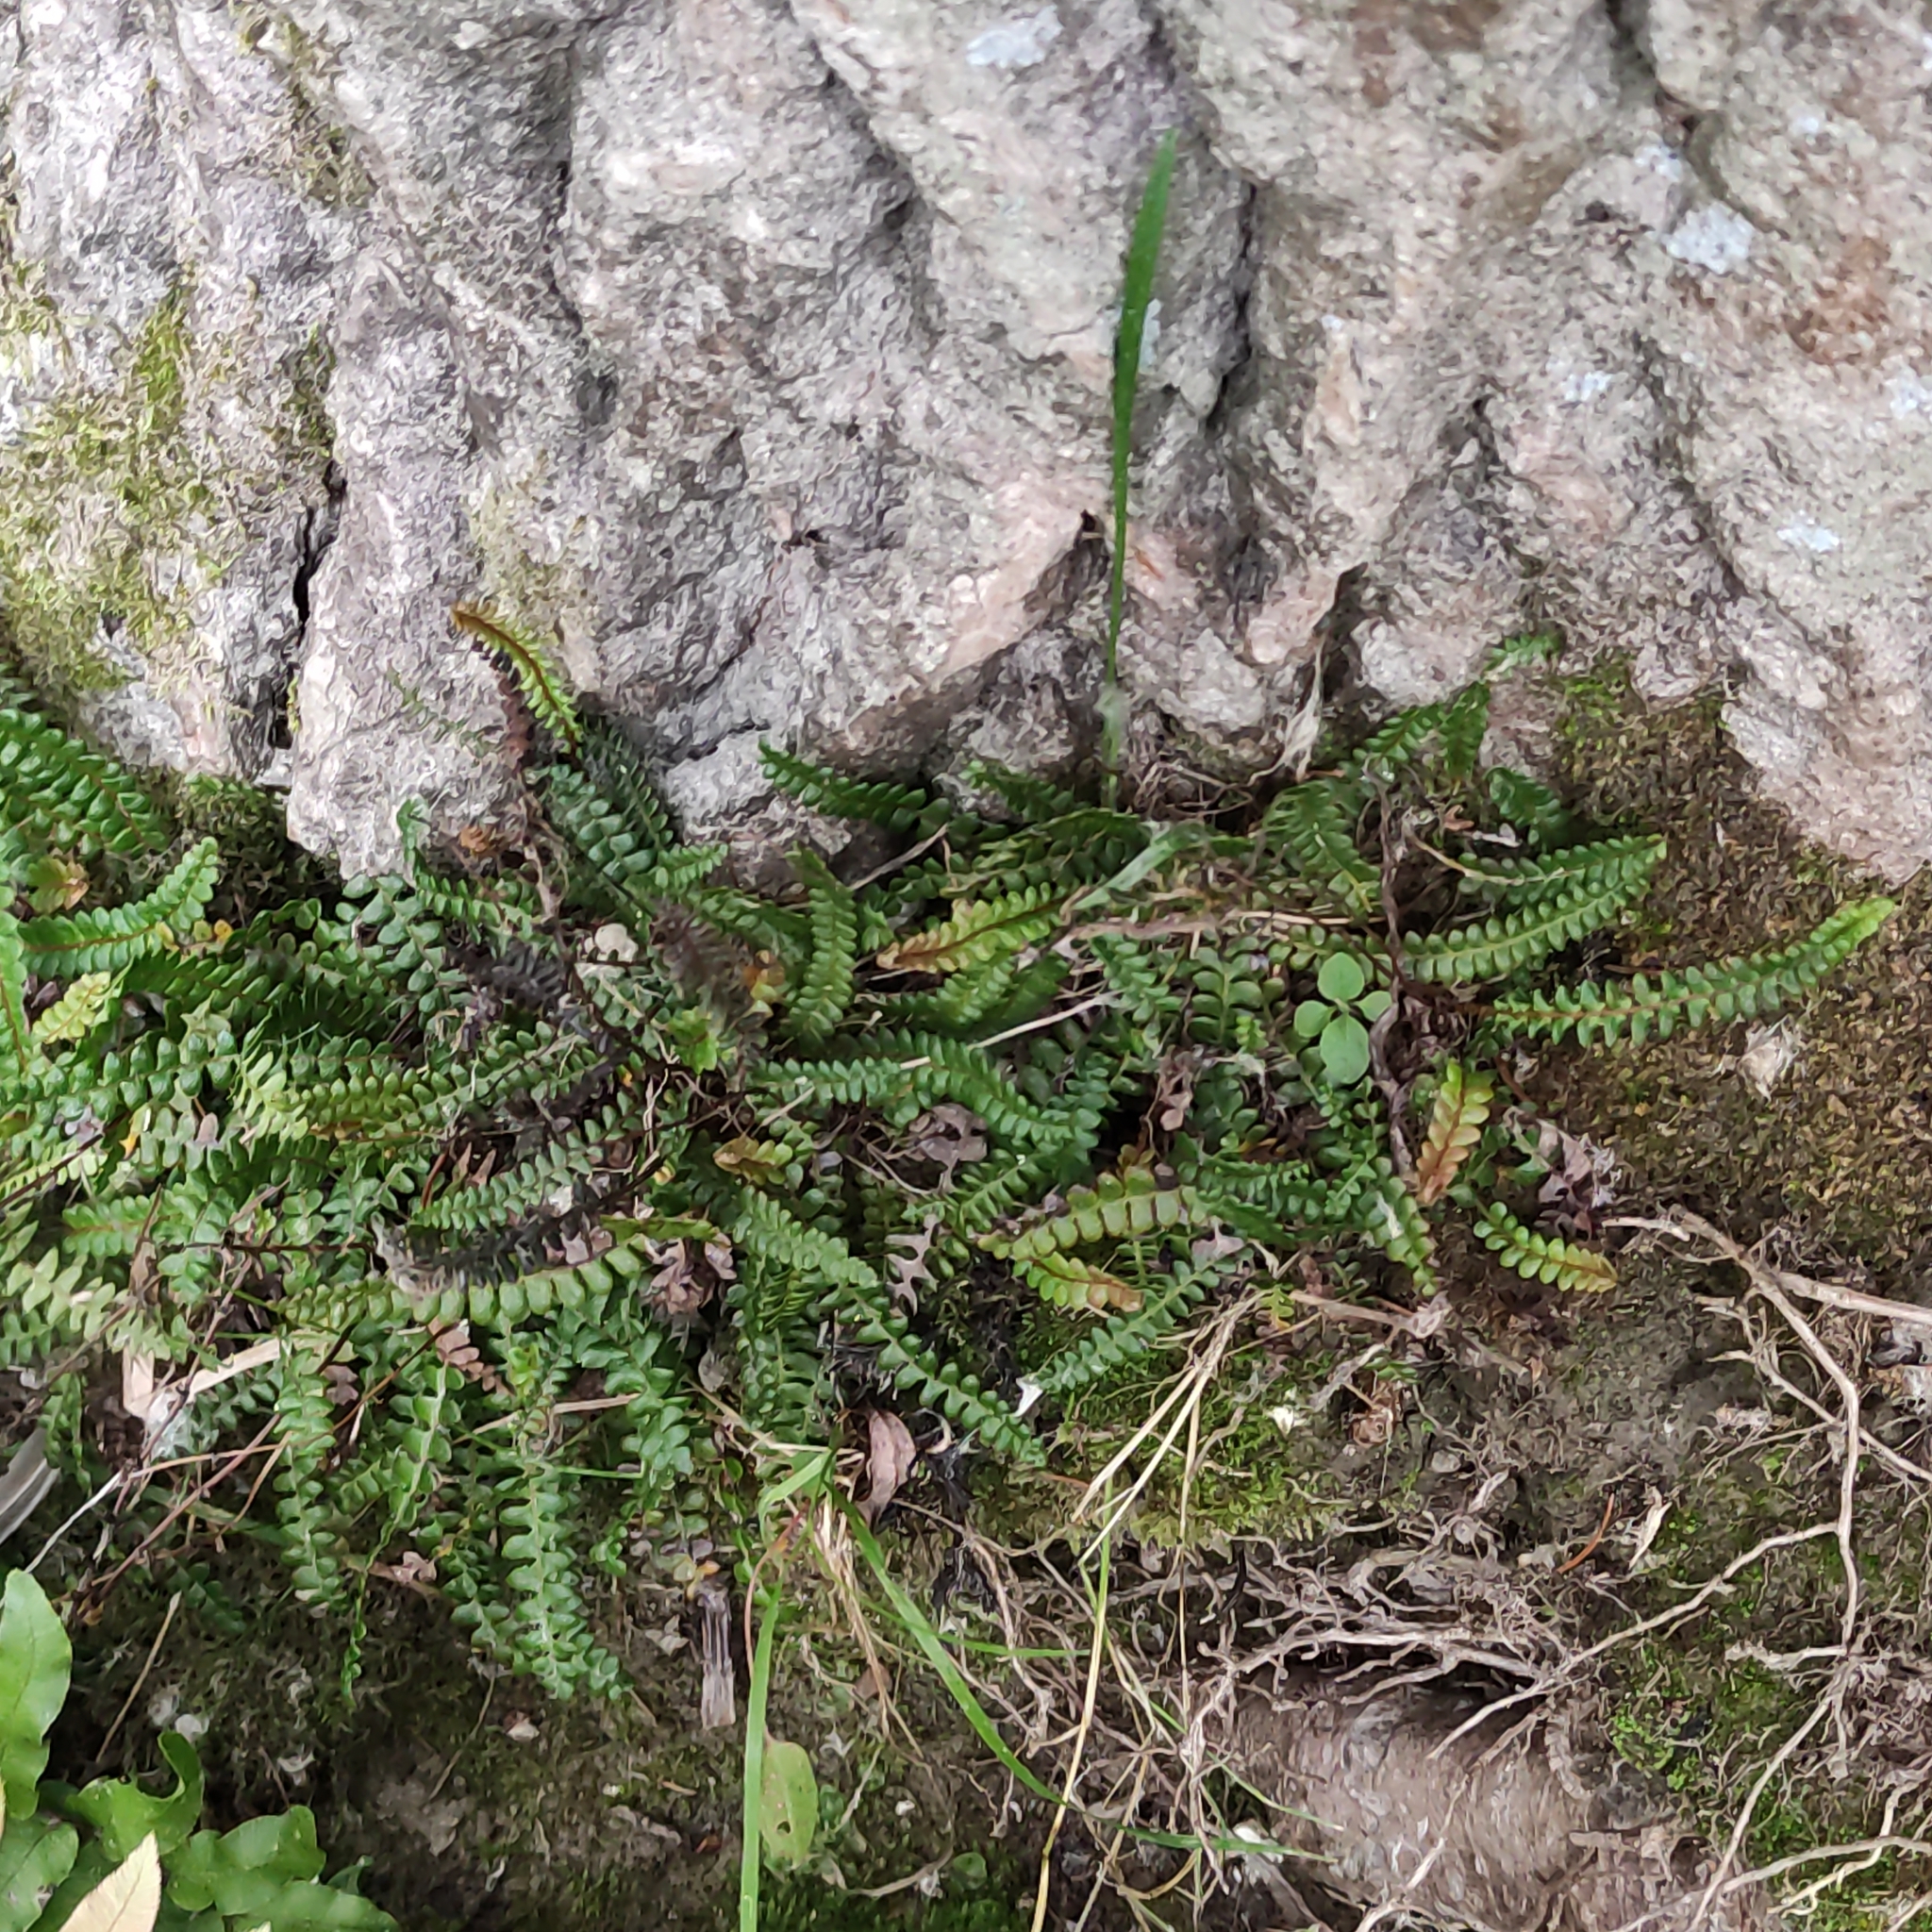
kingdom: Plantae
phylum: Tracheophyta
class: Polypodiopsida
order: Polypodiales
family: Blechnaceae
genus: Austroblechnum
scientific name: Austroblechnum penna-marina
